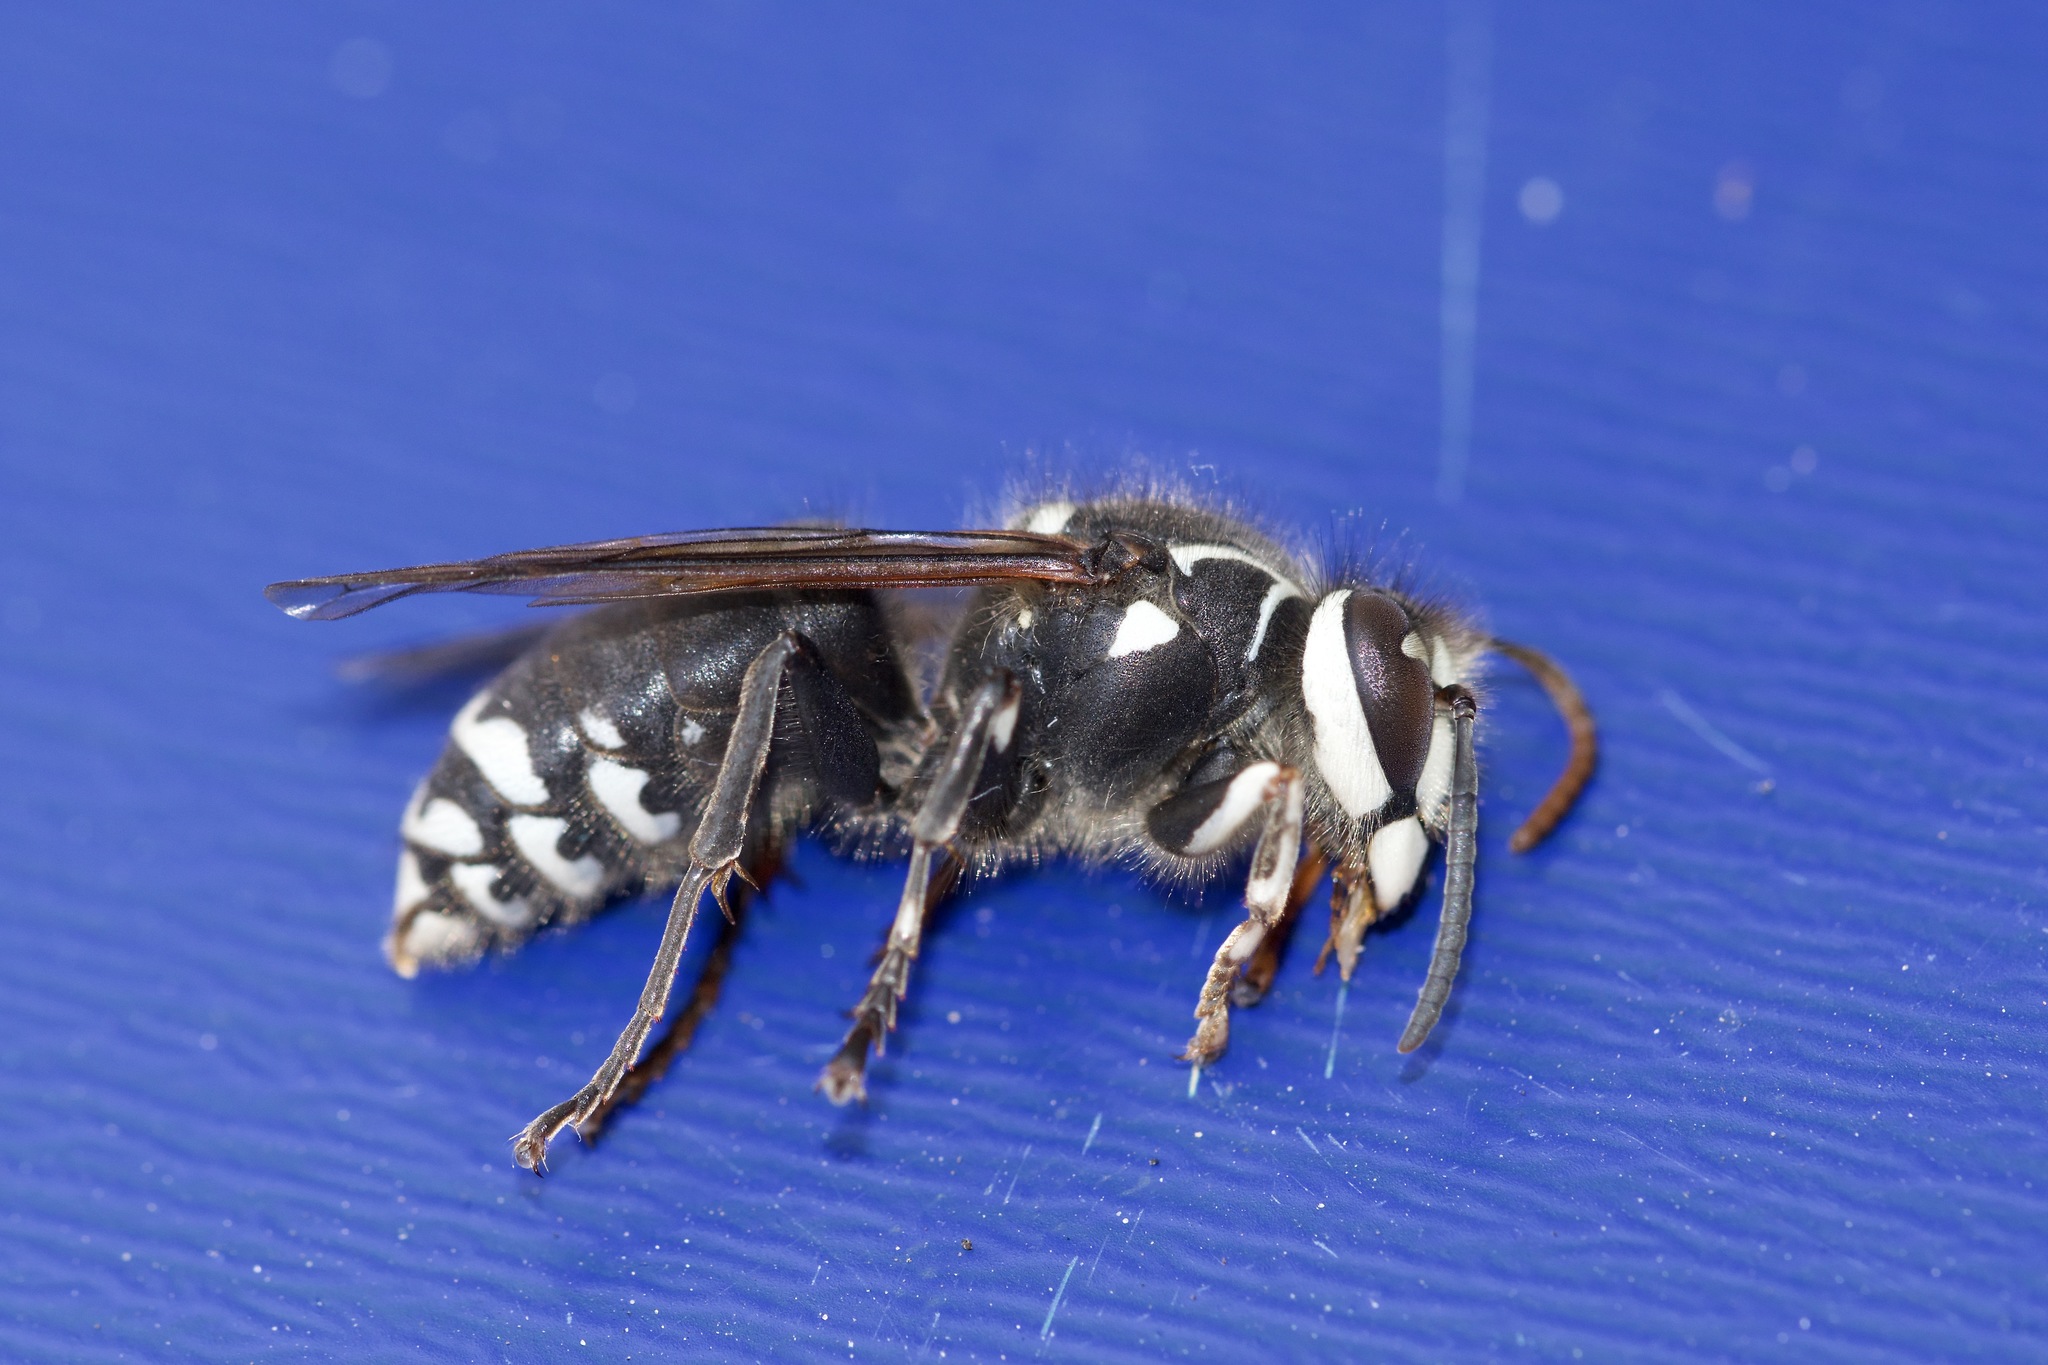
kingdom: Animalia
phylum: Arthropoda
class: Insecta
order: Hymenoptera
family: Vespidae
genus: Dolichovespula
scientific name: Dolichovespula maculata
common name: Bald-faced hornet
